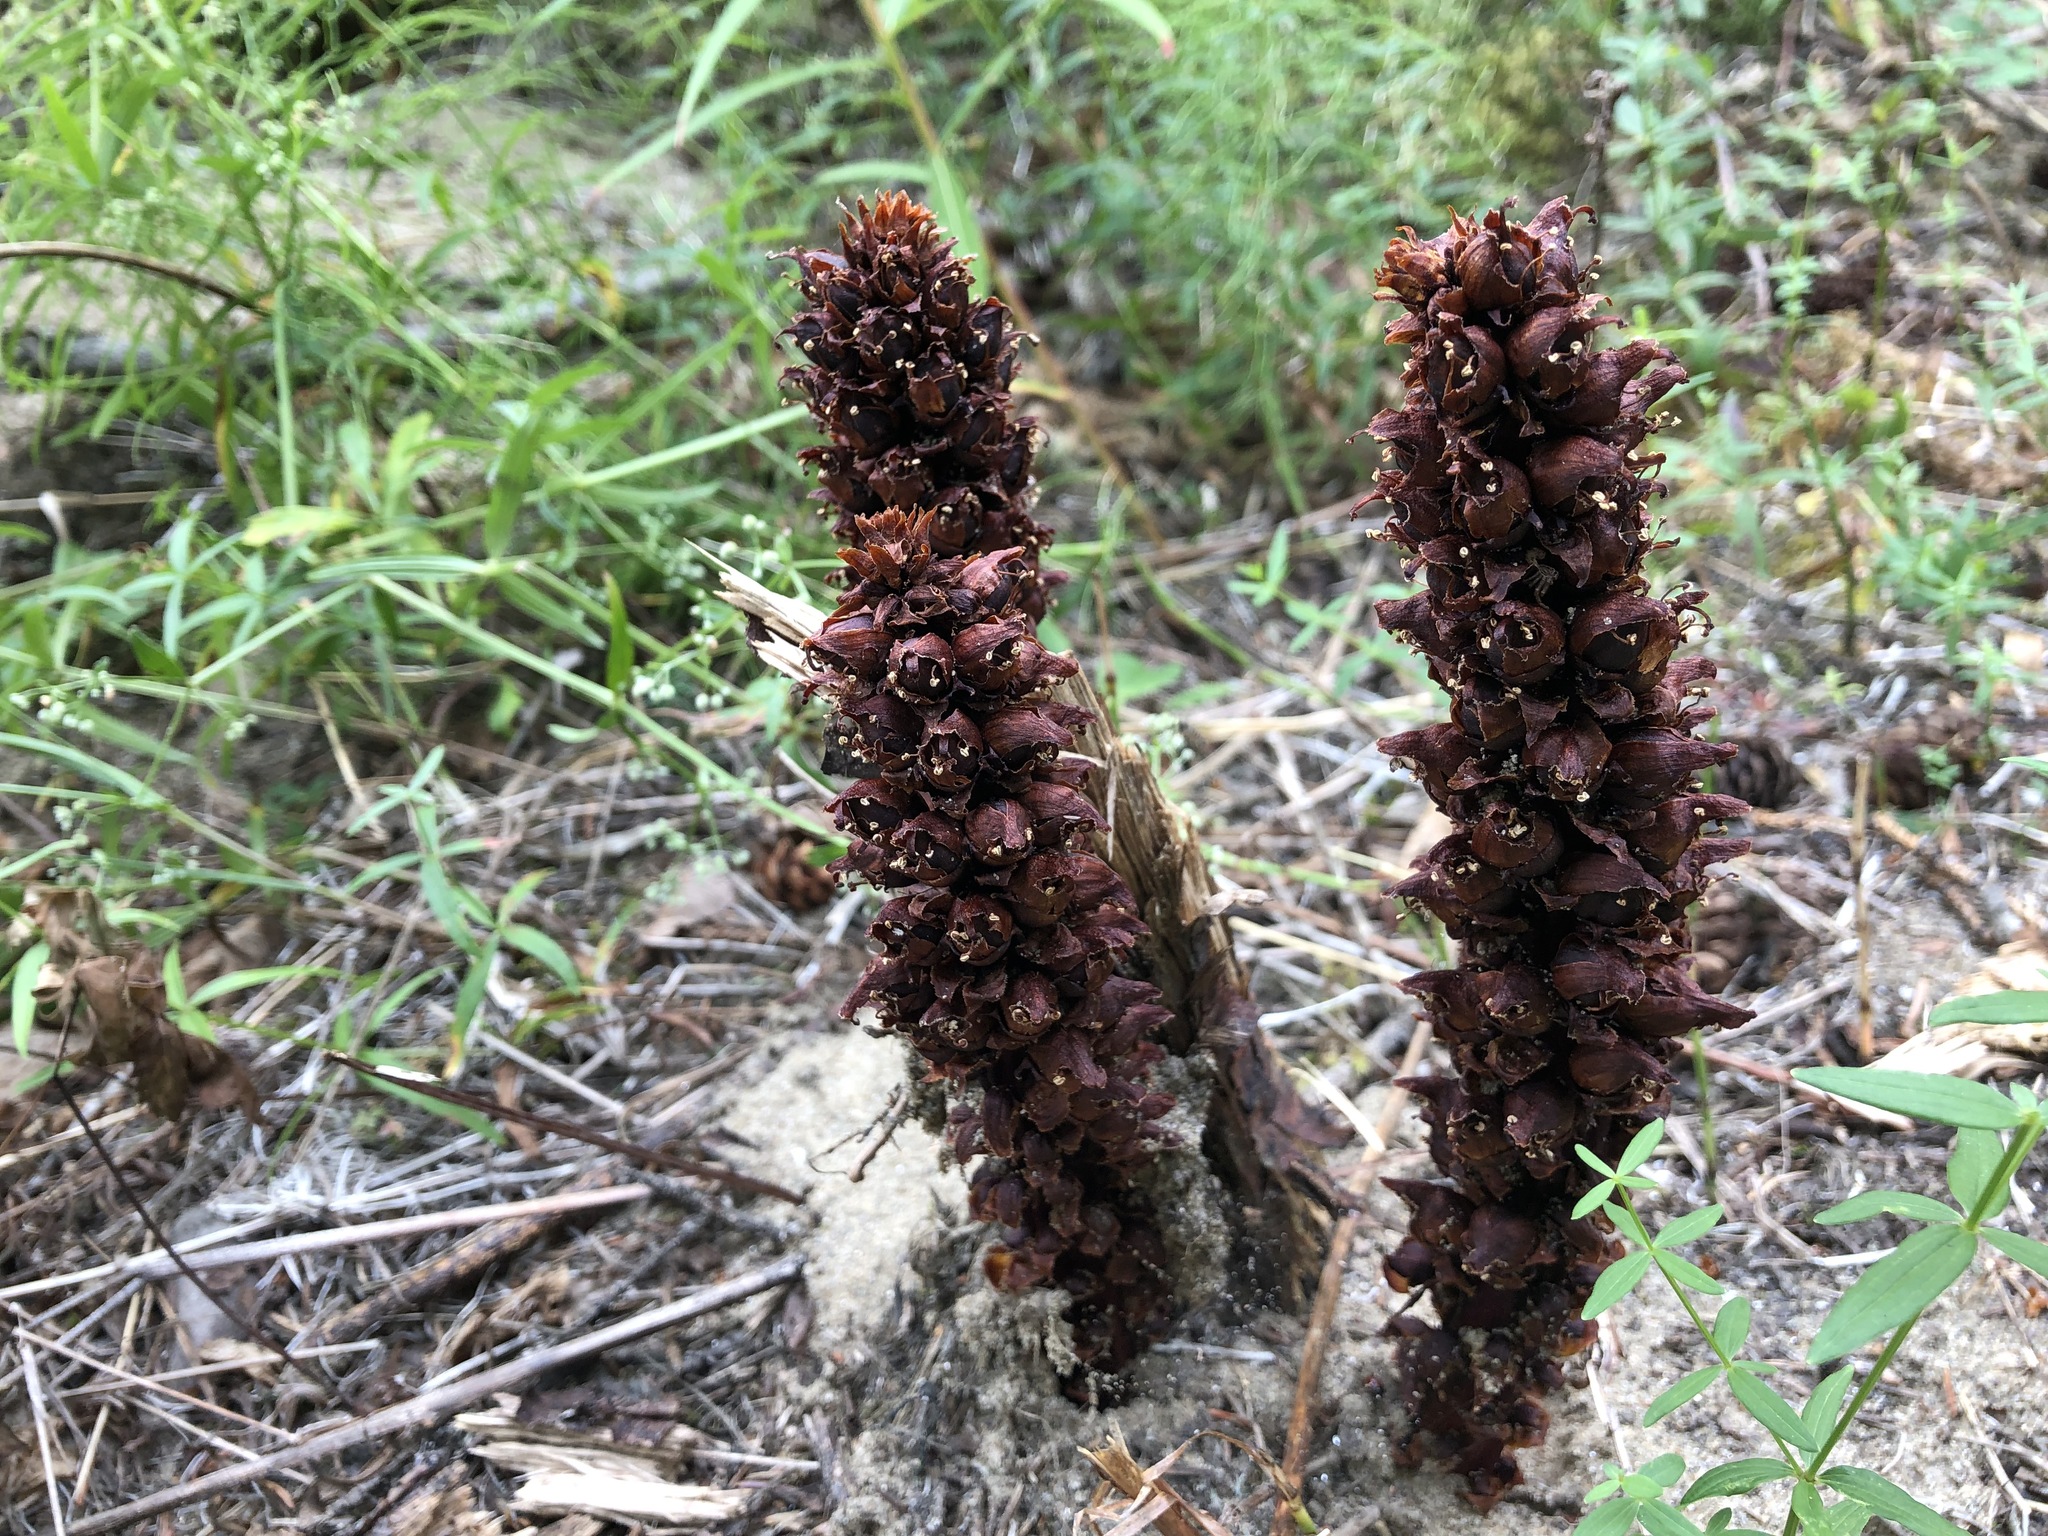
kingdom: Plantae
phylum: Tracheophyta
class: Magnoliopsida
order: Lamiales
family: Orobanchaceae
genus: Boschniakia
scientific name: Boschniakia rossica
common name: Poque
